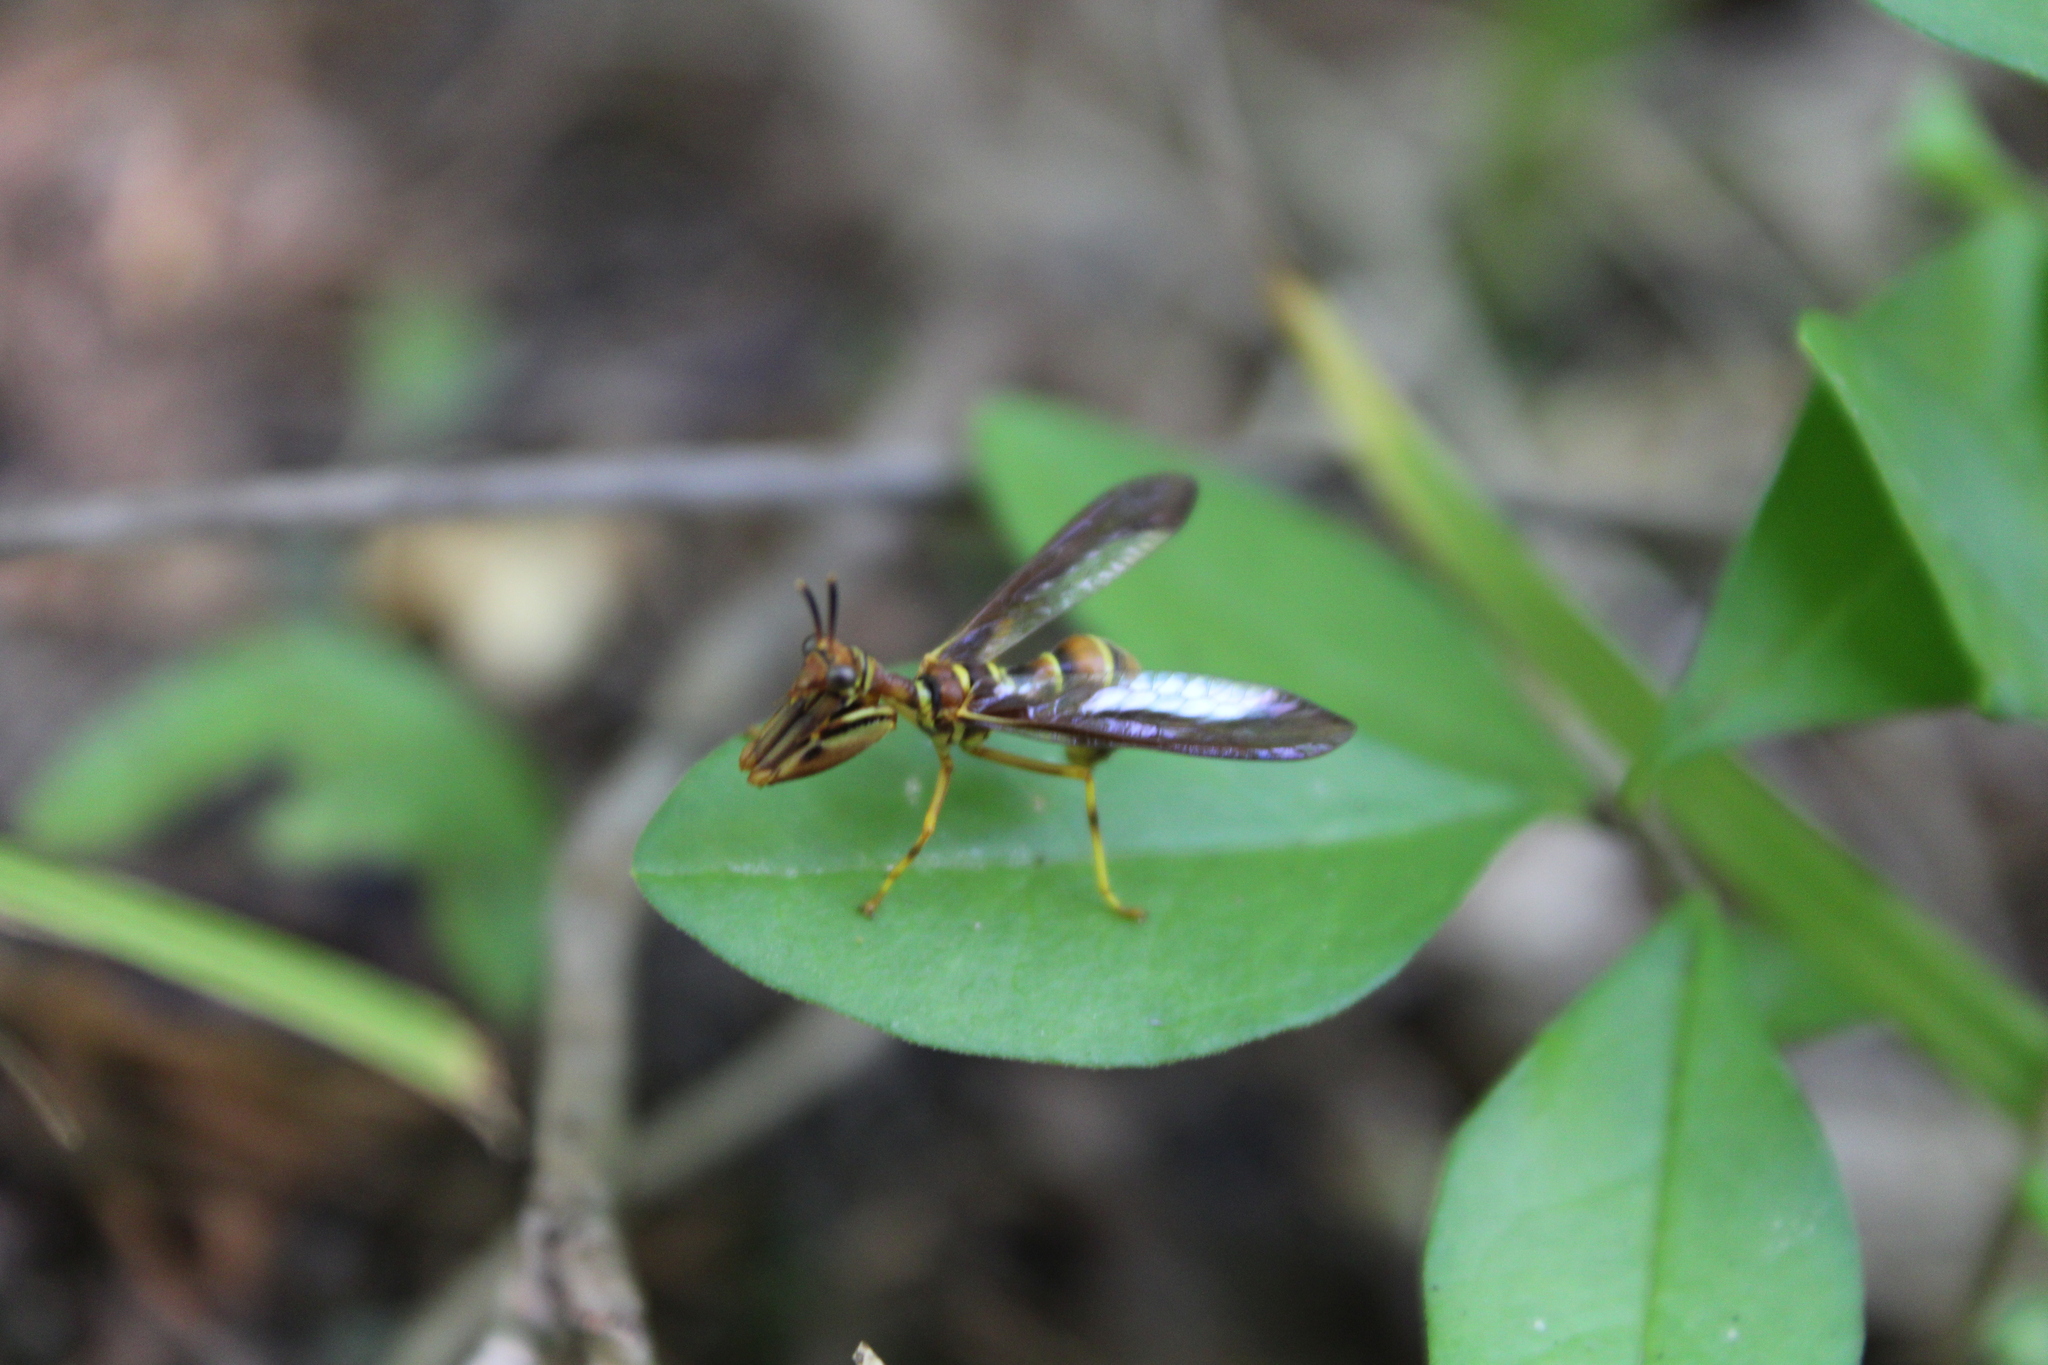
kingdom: Animalia
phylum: Arthropoda
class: Insecta
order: Neuroptera
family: Mantispidae
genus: Climaciella
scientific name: Climaciella brunnea
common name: Brown wasp mantidfly
